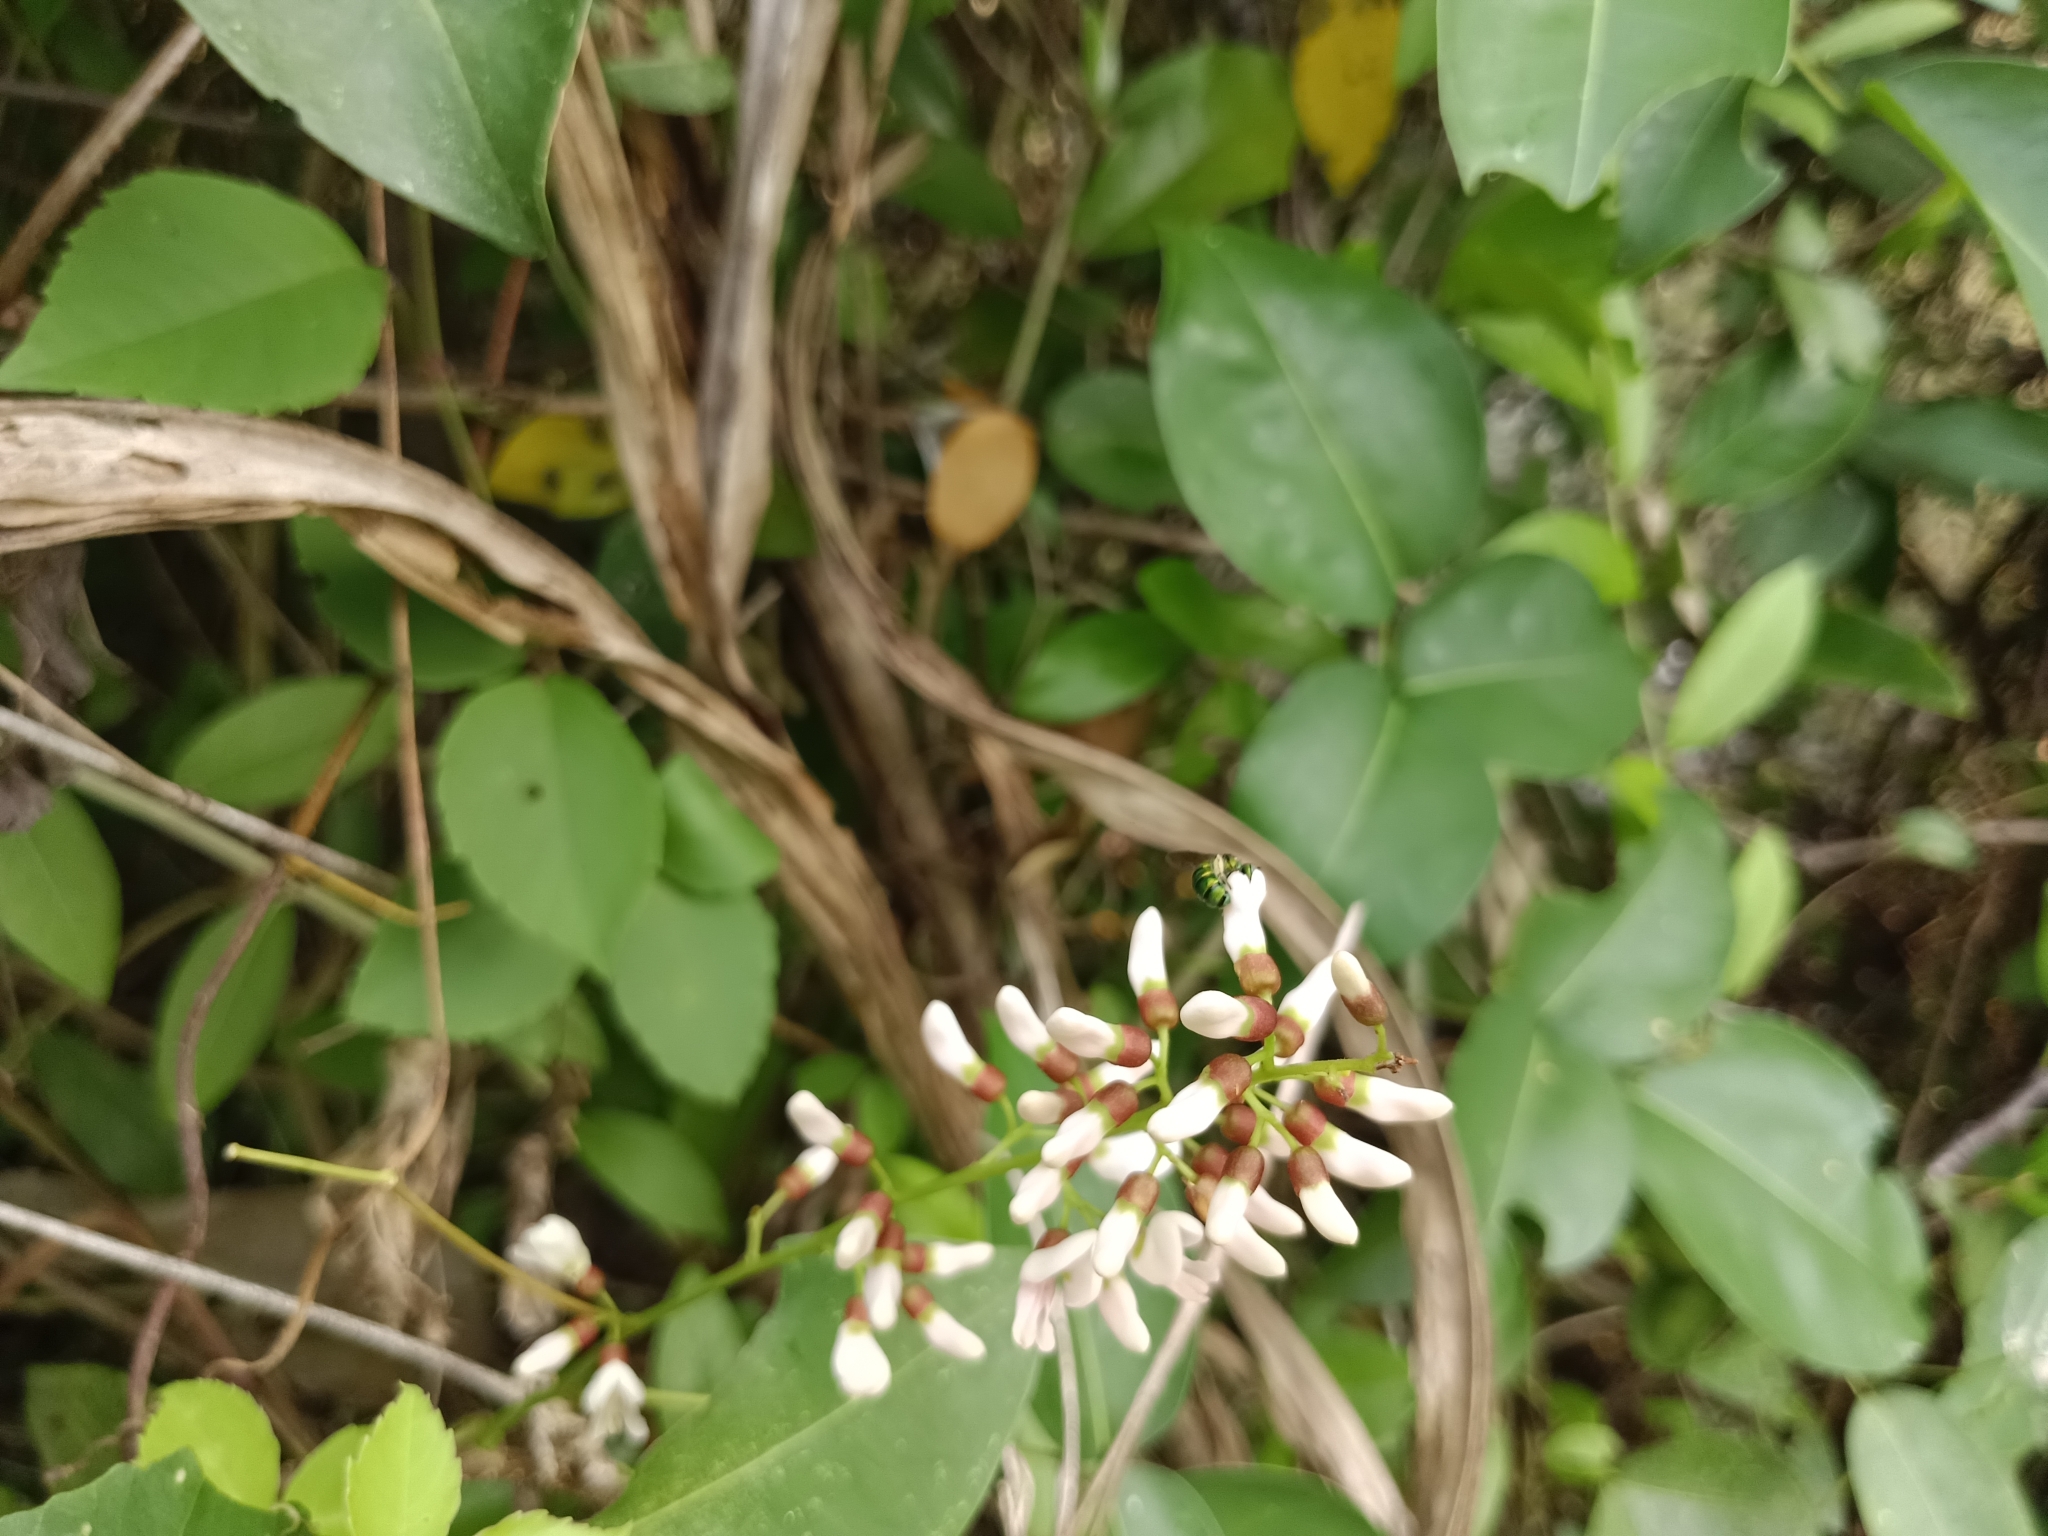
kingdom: Plantae
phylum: Tracheophyta
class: Magnoliopsida
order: Fabales
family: Fabaceae
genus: Derris
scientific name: Derris trifoliata
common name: Three-leaf derris
